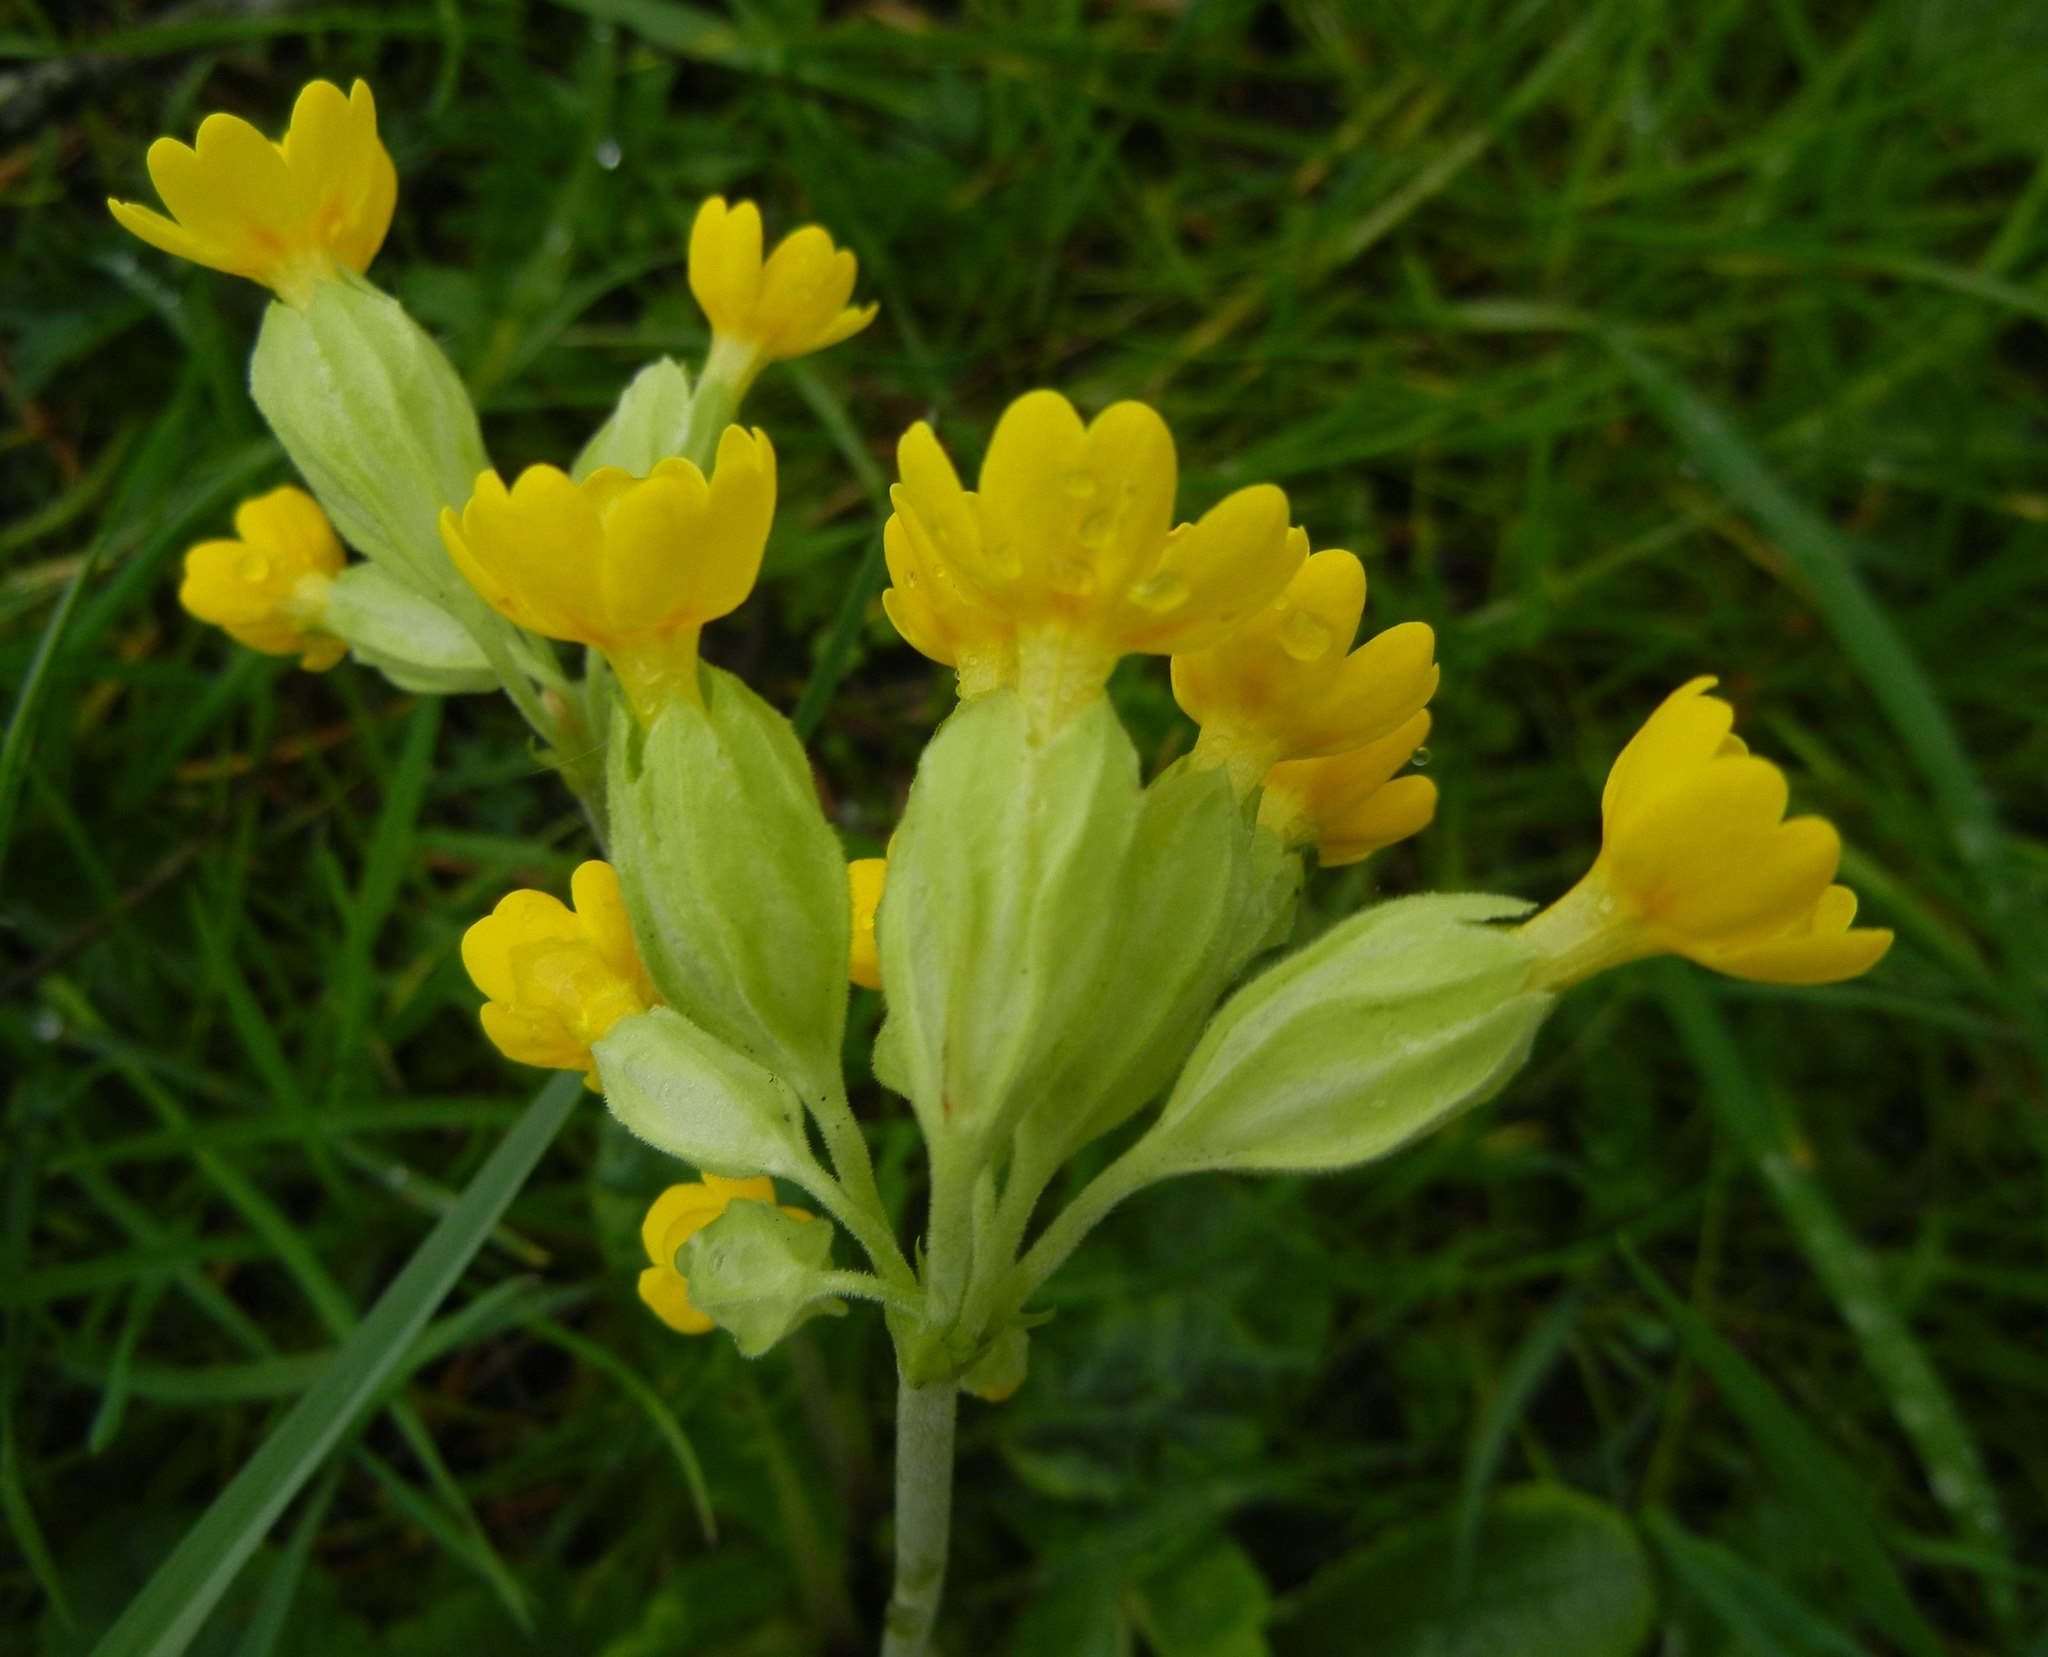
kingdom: Plantae
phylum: Tracheophyta
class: Magnoliopsida
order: Ericales
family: Primulaceae
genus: Primula
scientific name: Primula veris
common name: Cowslip
